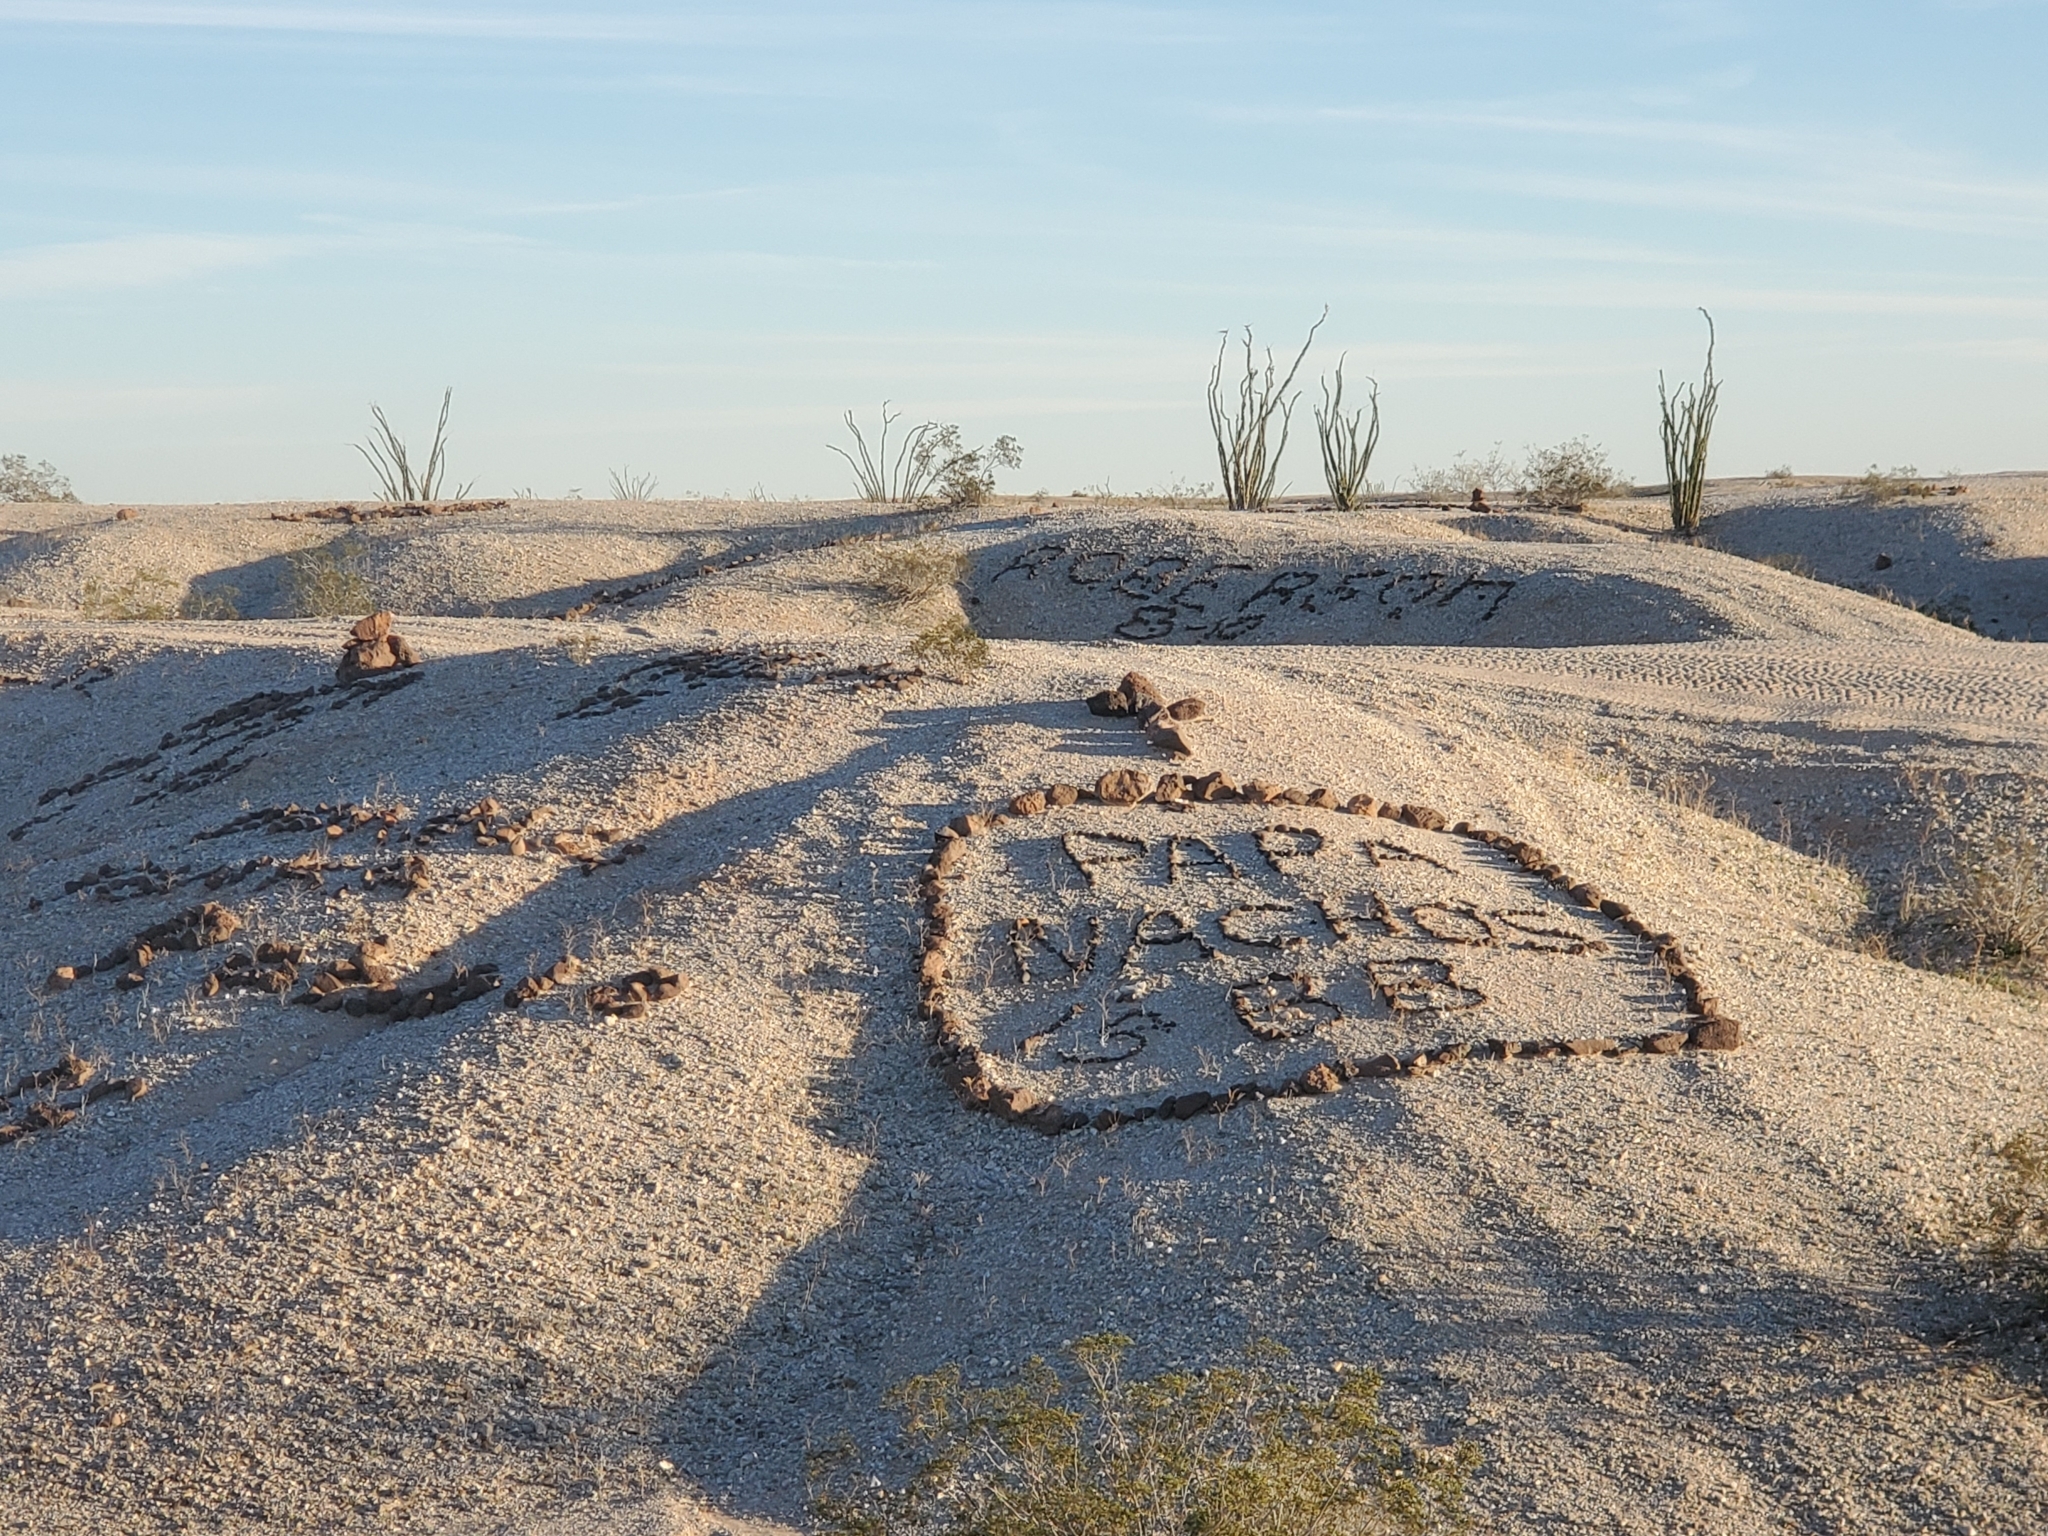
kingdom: Plantae
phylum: Tracheophyta
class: Magnoliopsida
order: Ericales
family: Fouquieriaceae
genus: Fouquieria
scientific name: Fouquieria splendens
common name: Vine-cactus
